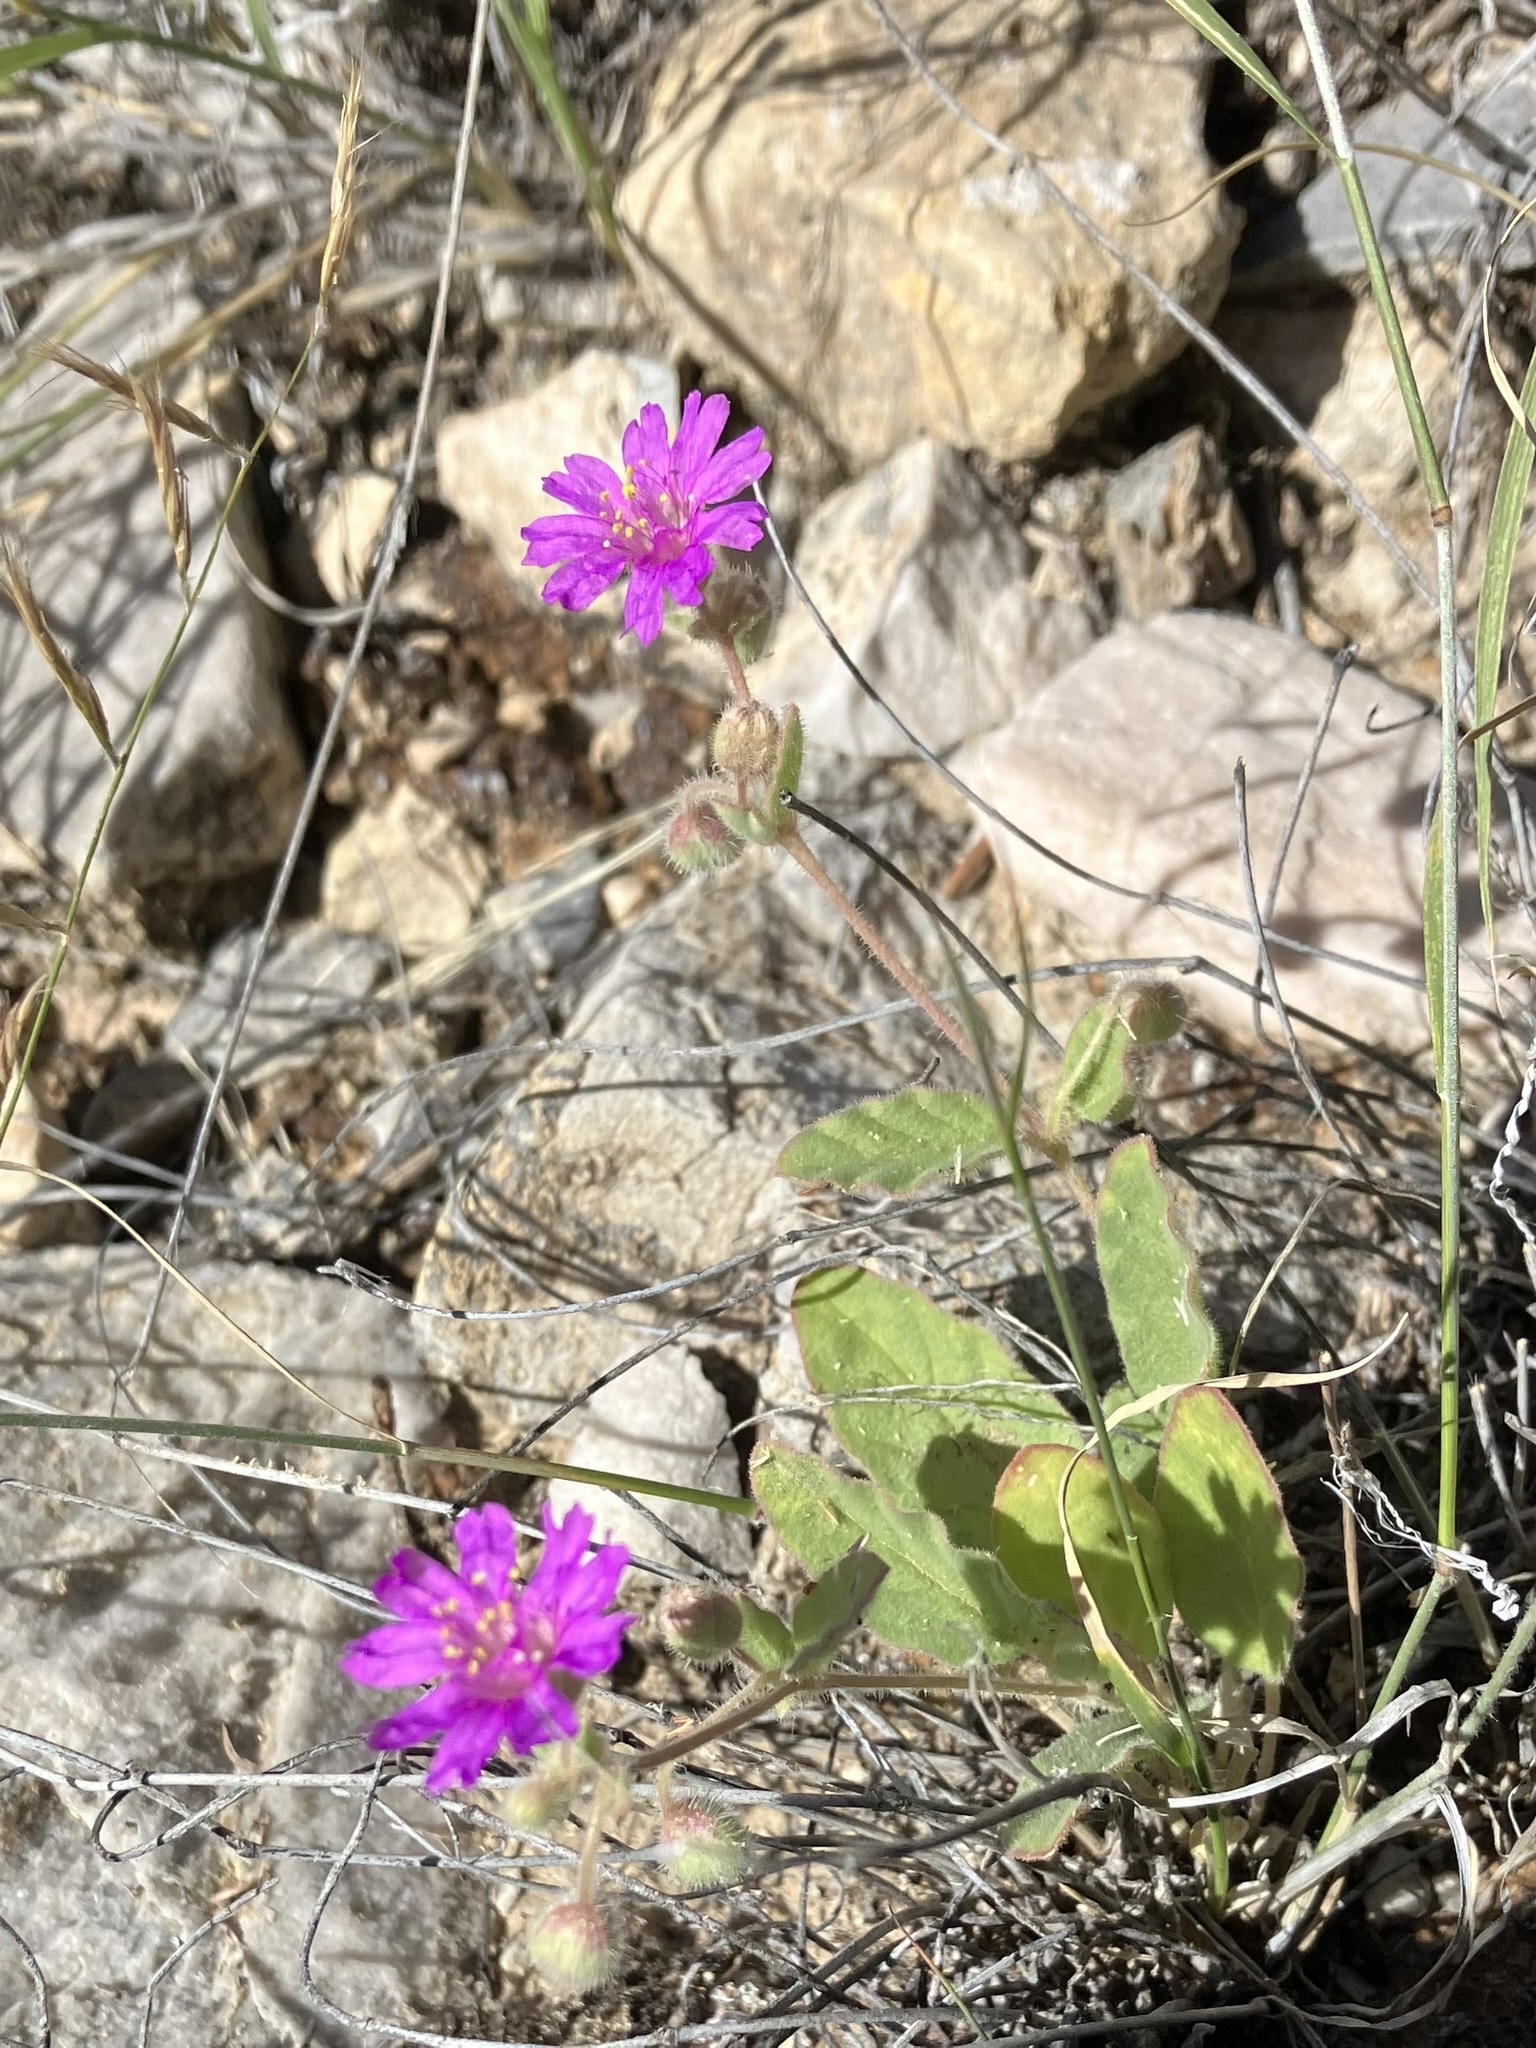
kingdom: Plantae
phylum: Tracheophyta
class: Magnoliopsida
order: Caryophyllales
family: Nyctaginaceae
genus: Allionia
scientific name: Allionia incarnata
